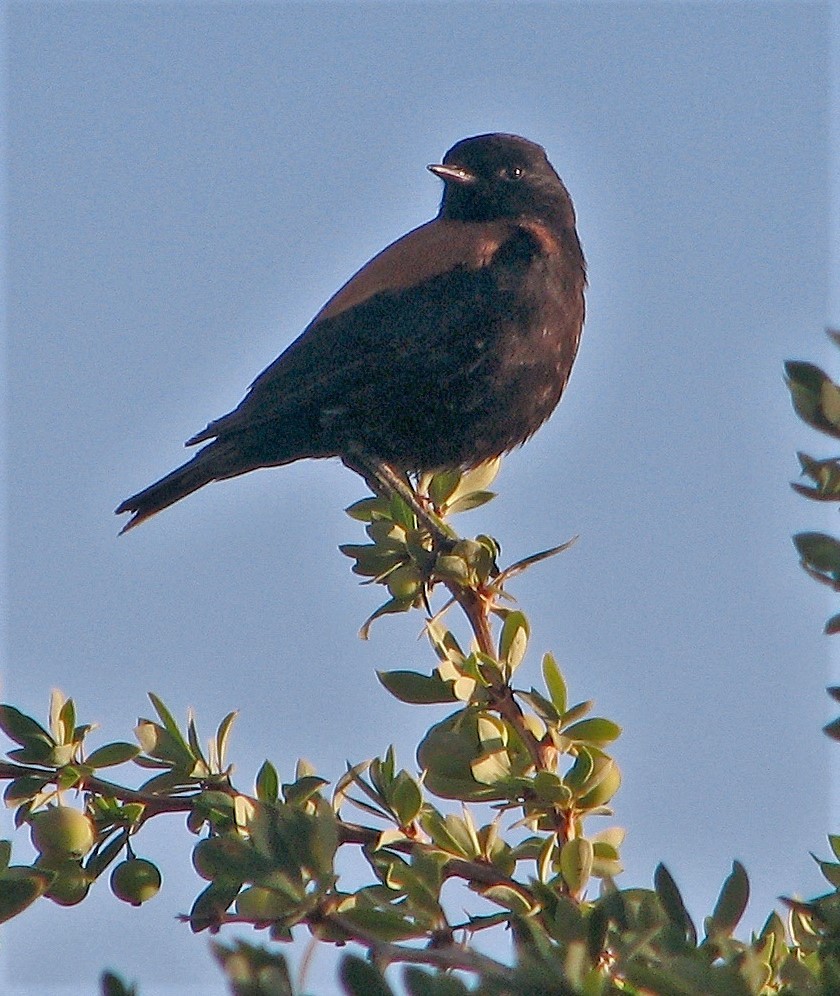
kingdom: Animalia
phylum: Chordata
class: Aves
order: Passeriformes
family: Tyrannidae
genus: Lessonia
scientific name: Lessonia rufa
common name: Austral negrito
